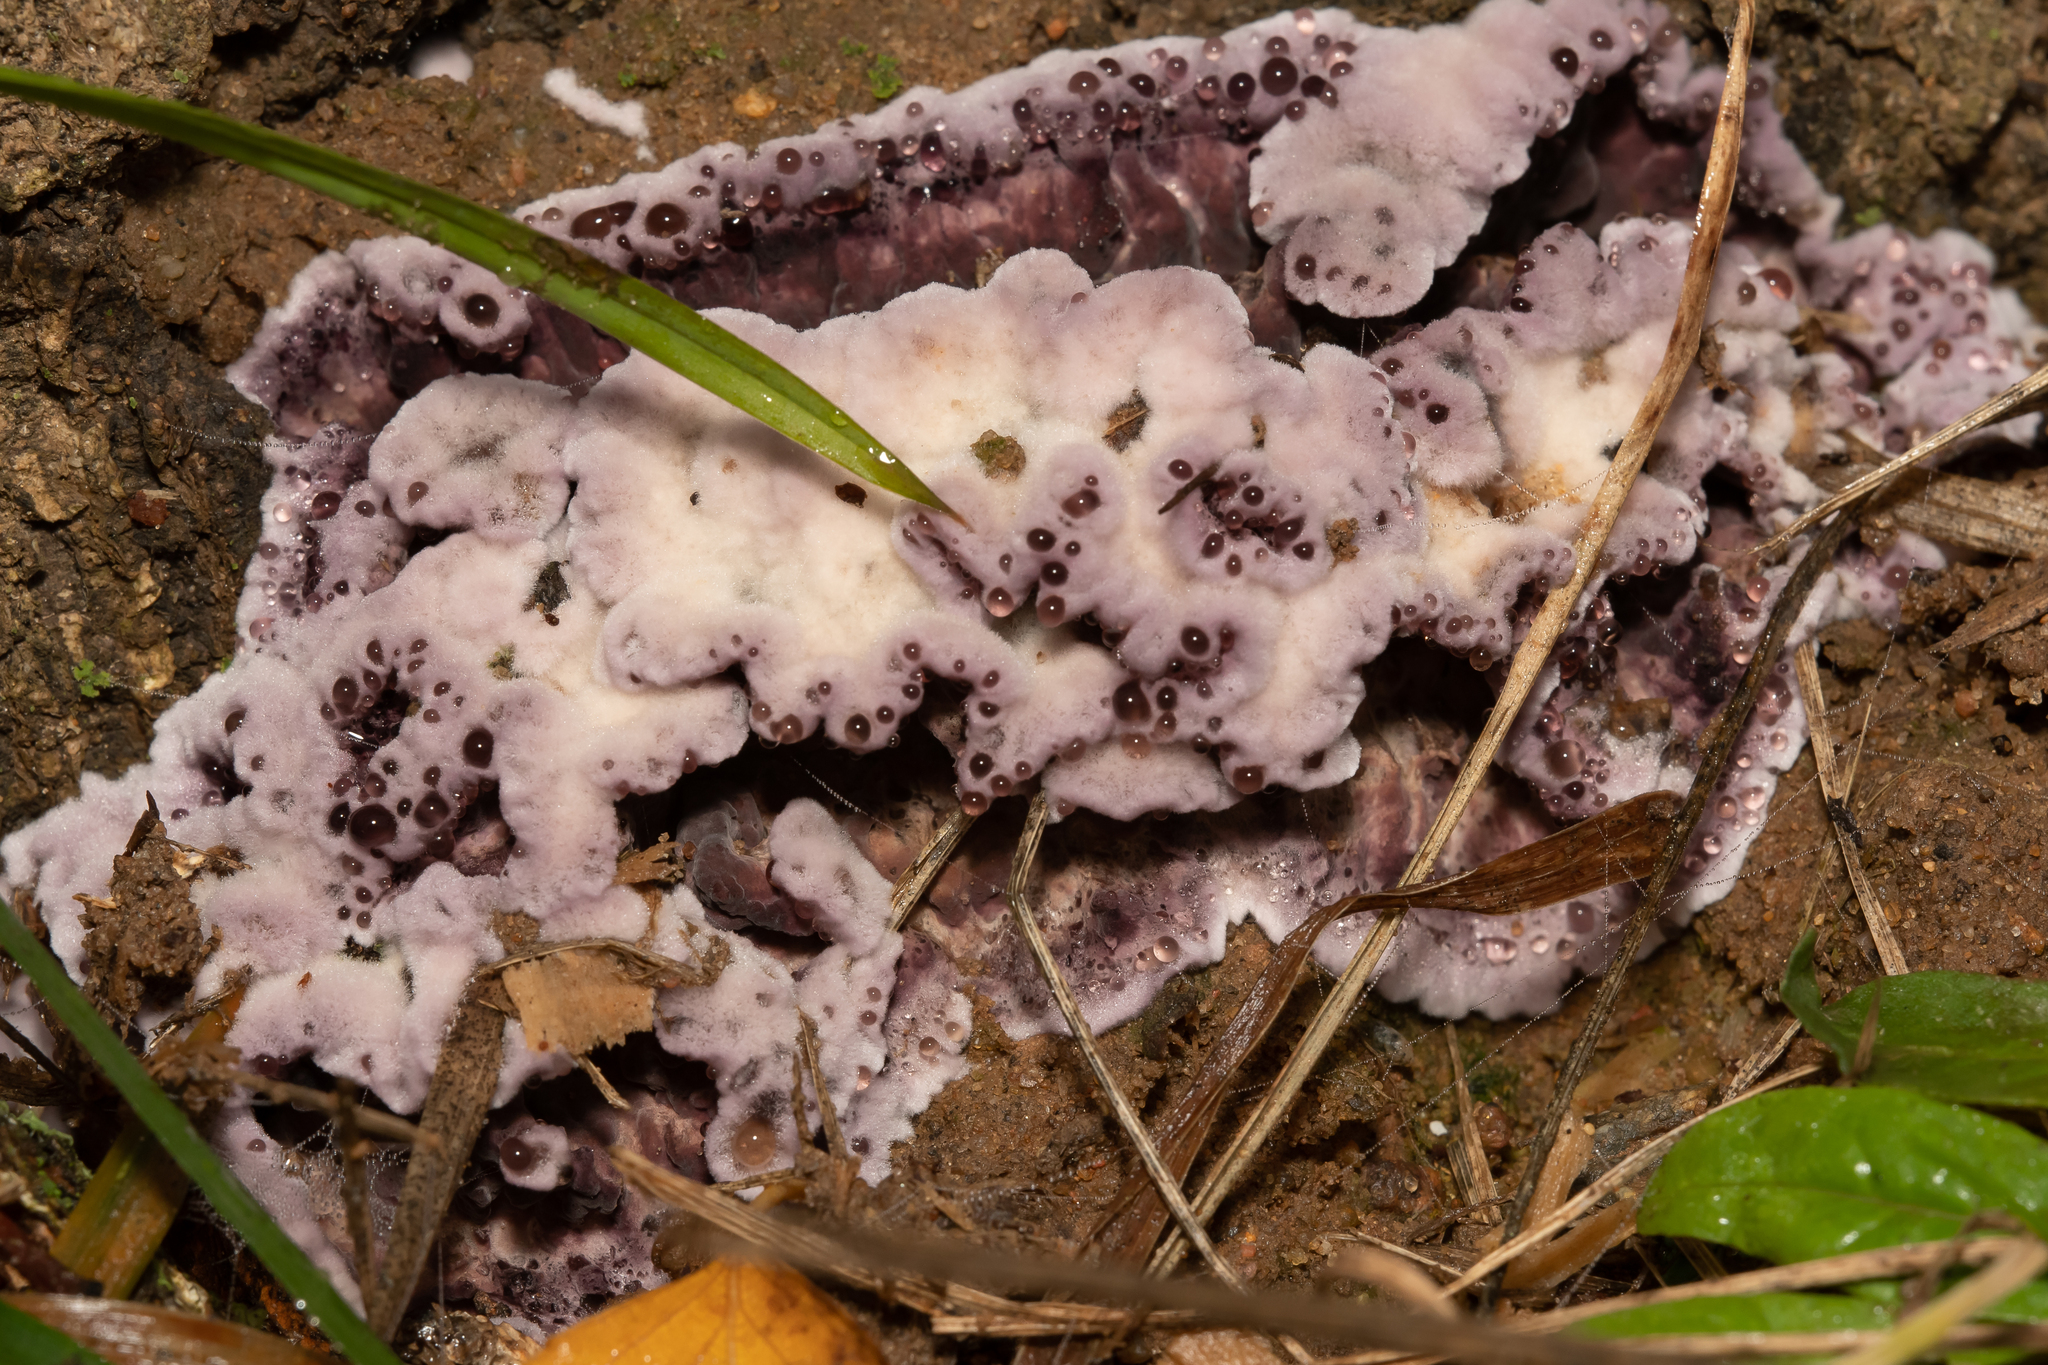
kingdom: Fungi
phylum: Basidiomycota
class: Agaricomycetes
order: Agaricales
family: Cyphellaceae
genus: Chondrostereum
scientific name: Chondrostereum purpureum
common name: Silver leaf disease
